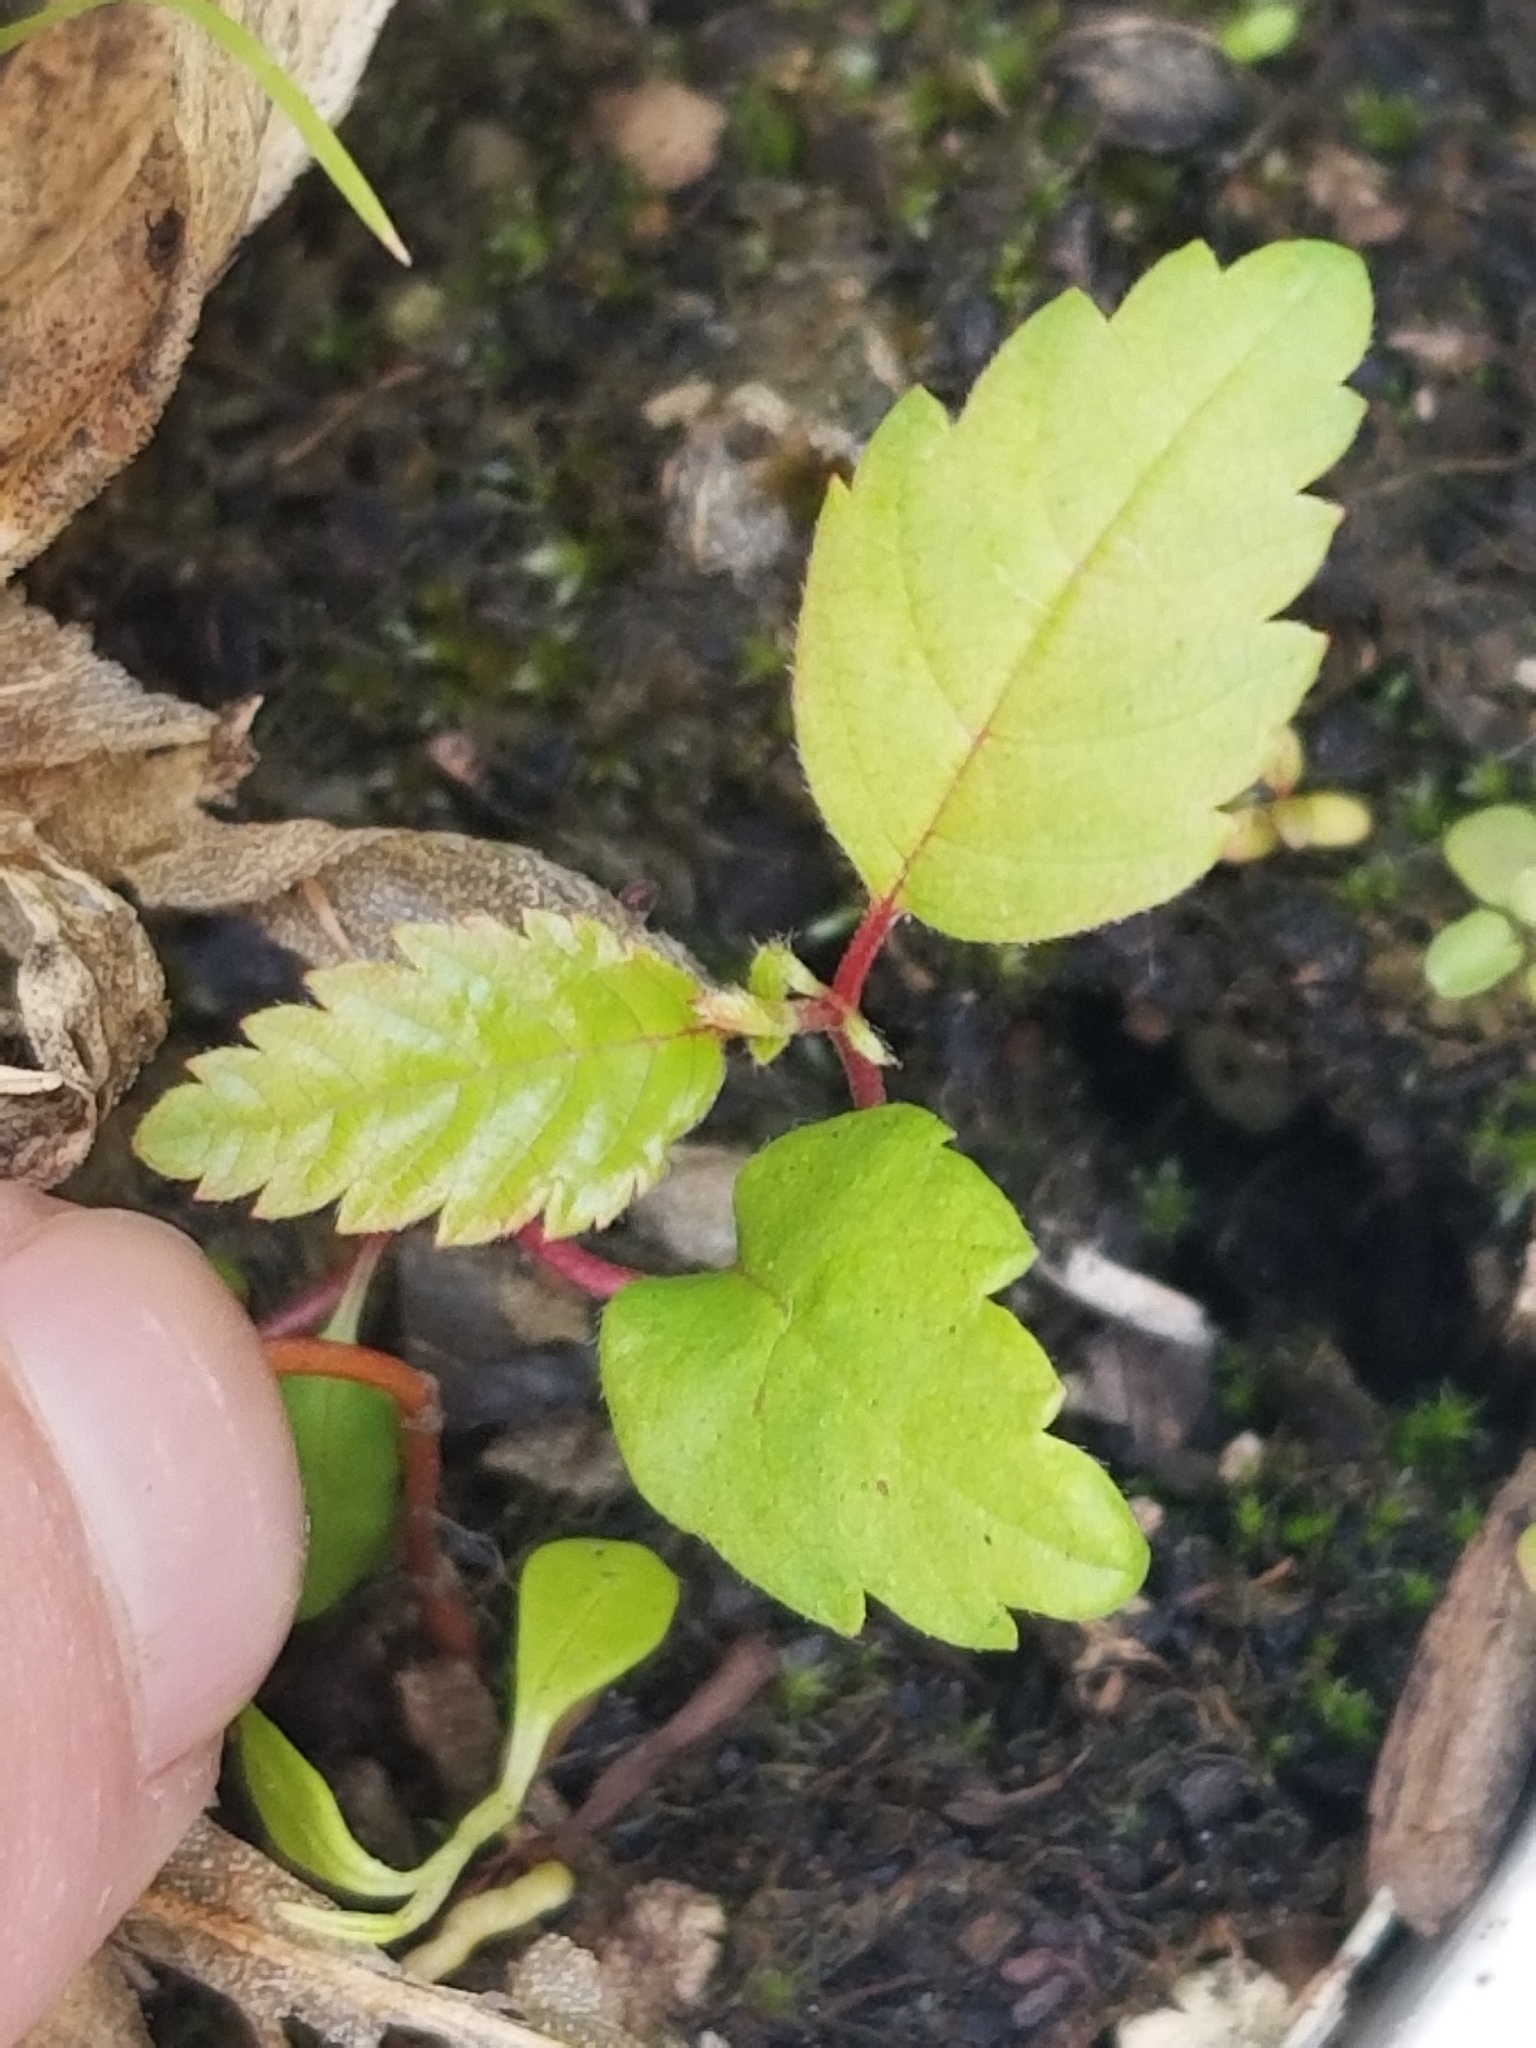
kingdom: Plantae
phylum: Tracheophyta
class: Magnoliopsida
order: Fagales
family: Betulaceae
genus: Alnus
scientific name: Alnus rubra
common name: Red alder
